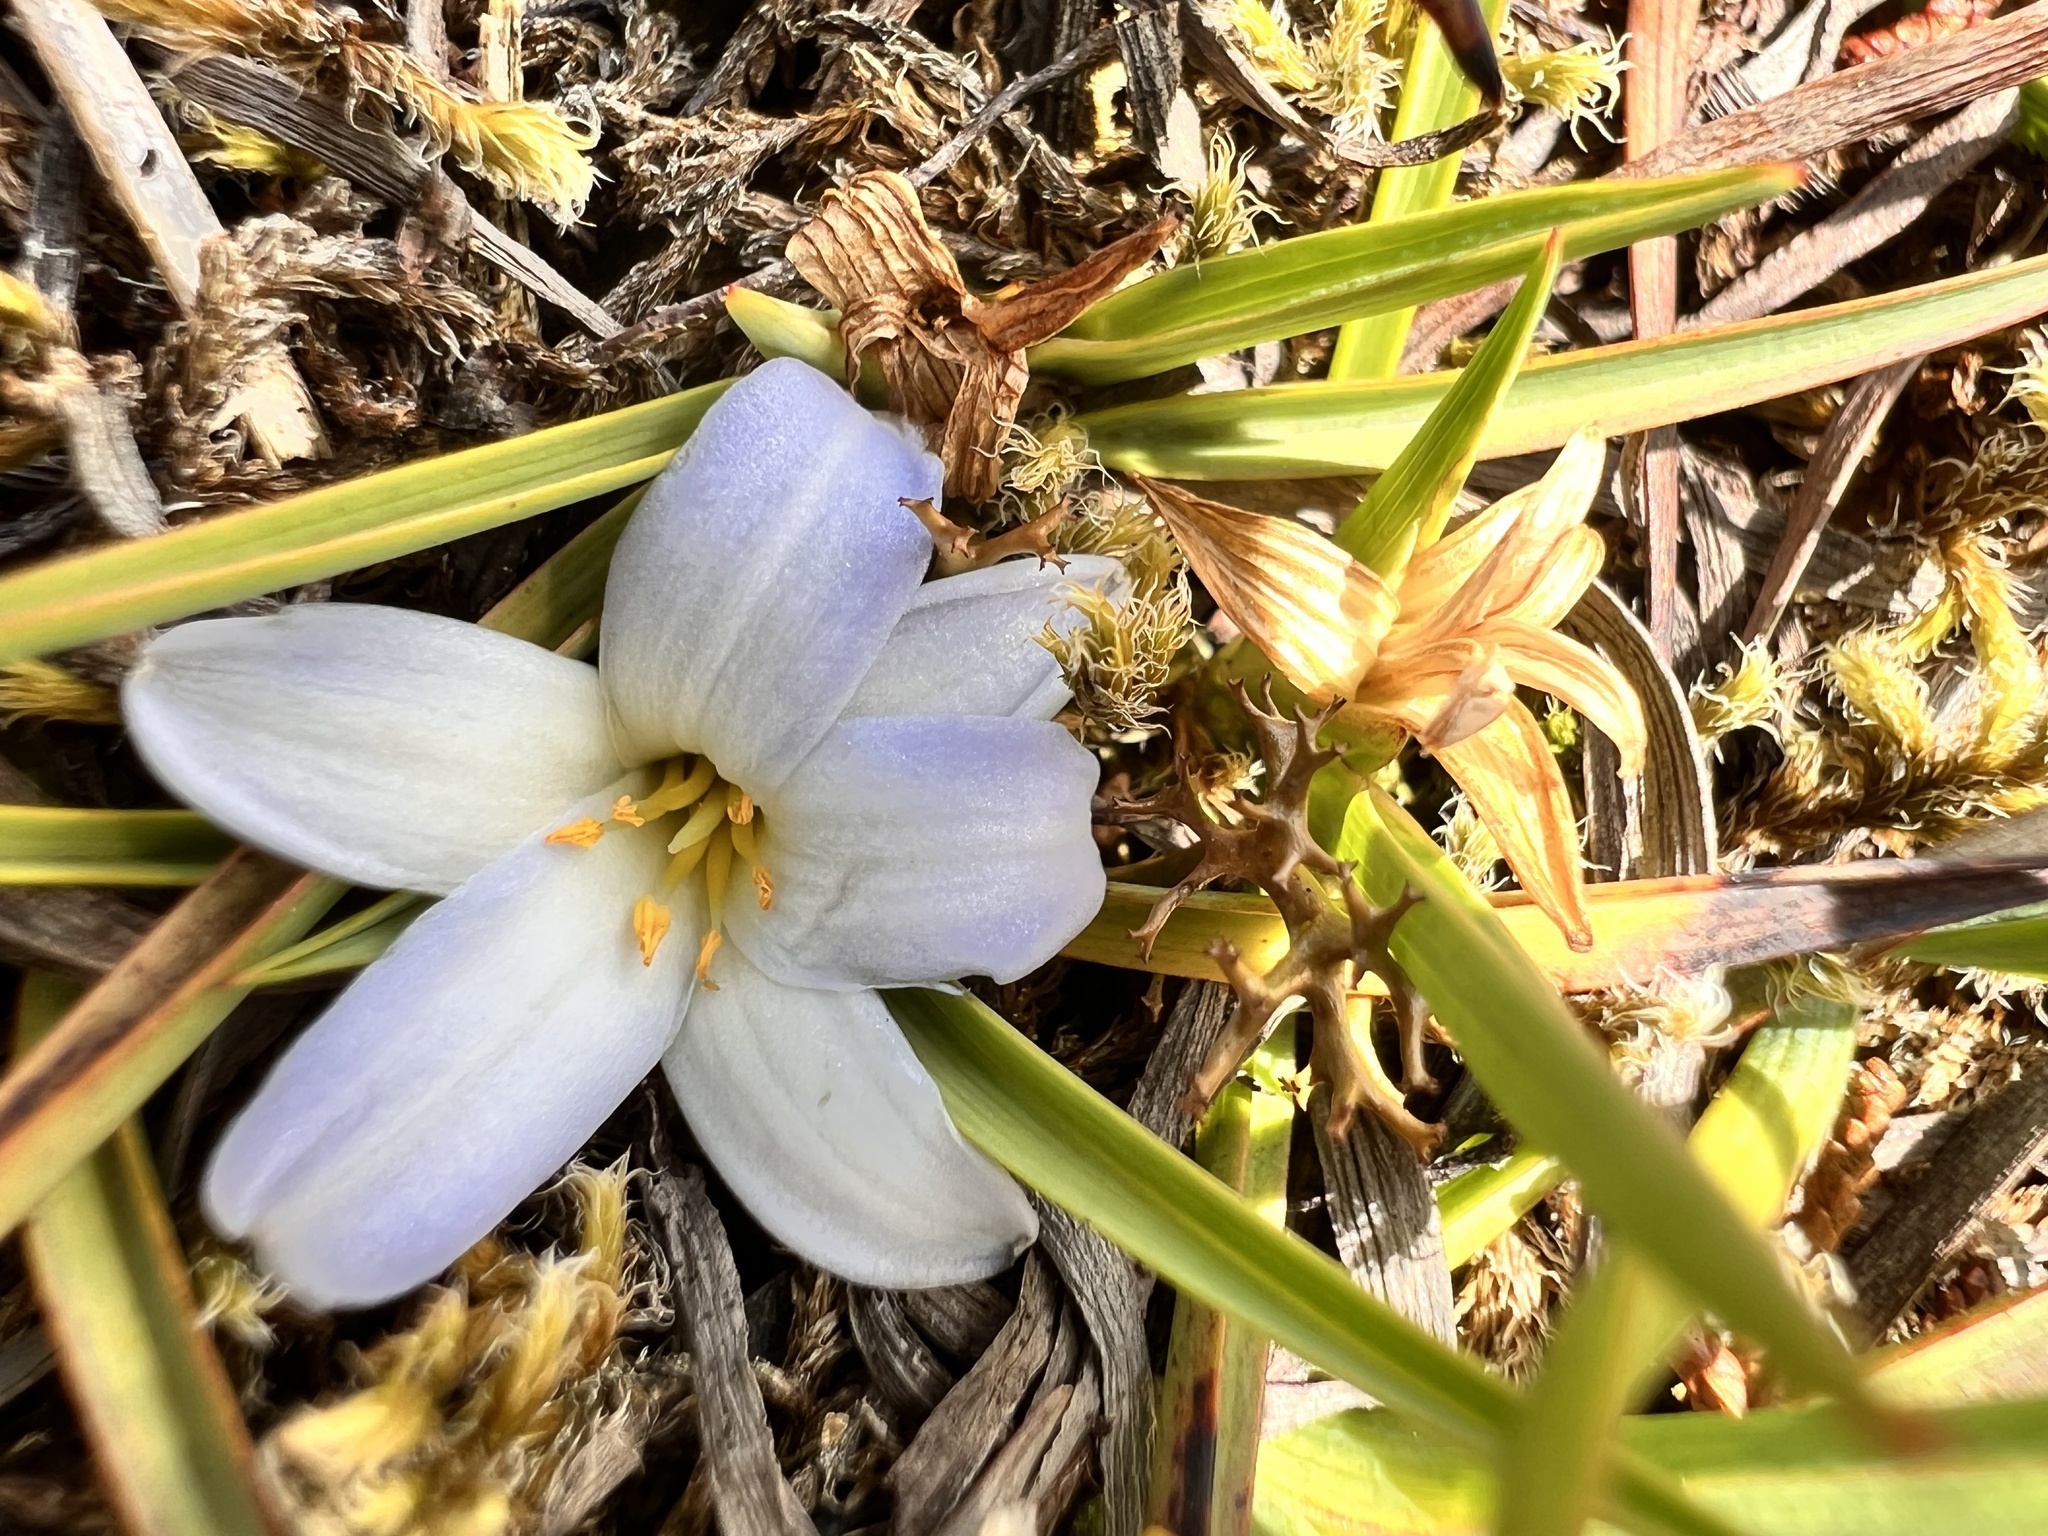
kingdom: Plantae
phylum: Tracheophyta
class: Liliopsida
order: Asparagales
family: Asphodelaceae
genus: Herpolirion
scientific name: Herpolirion novae-zelandiae
